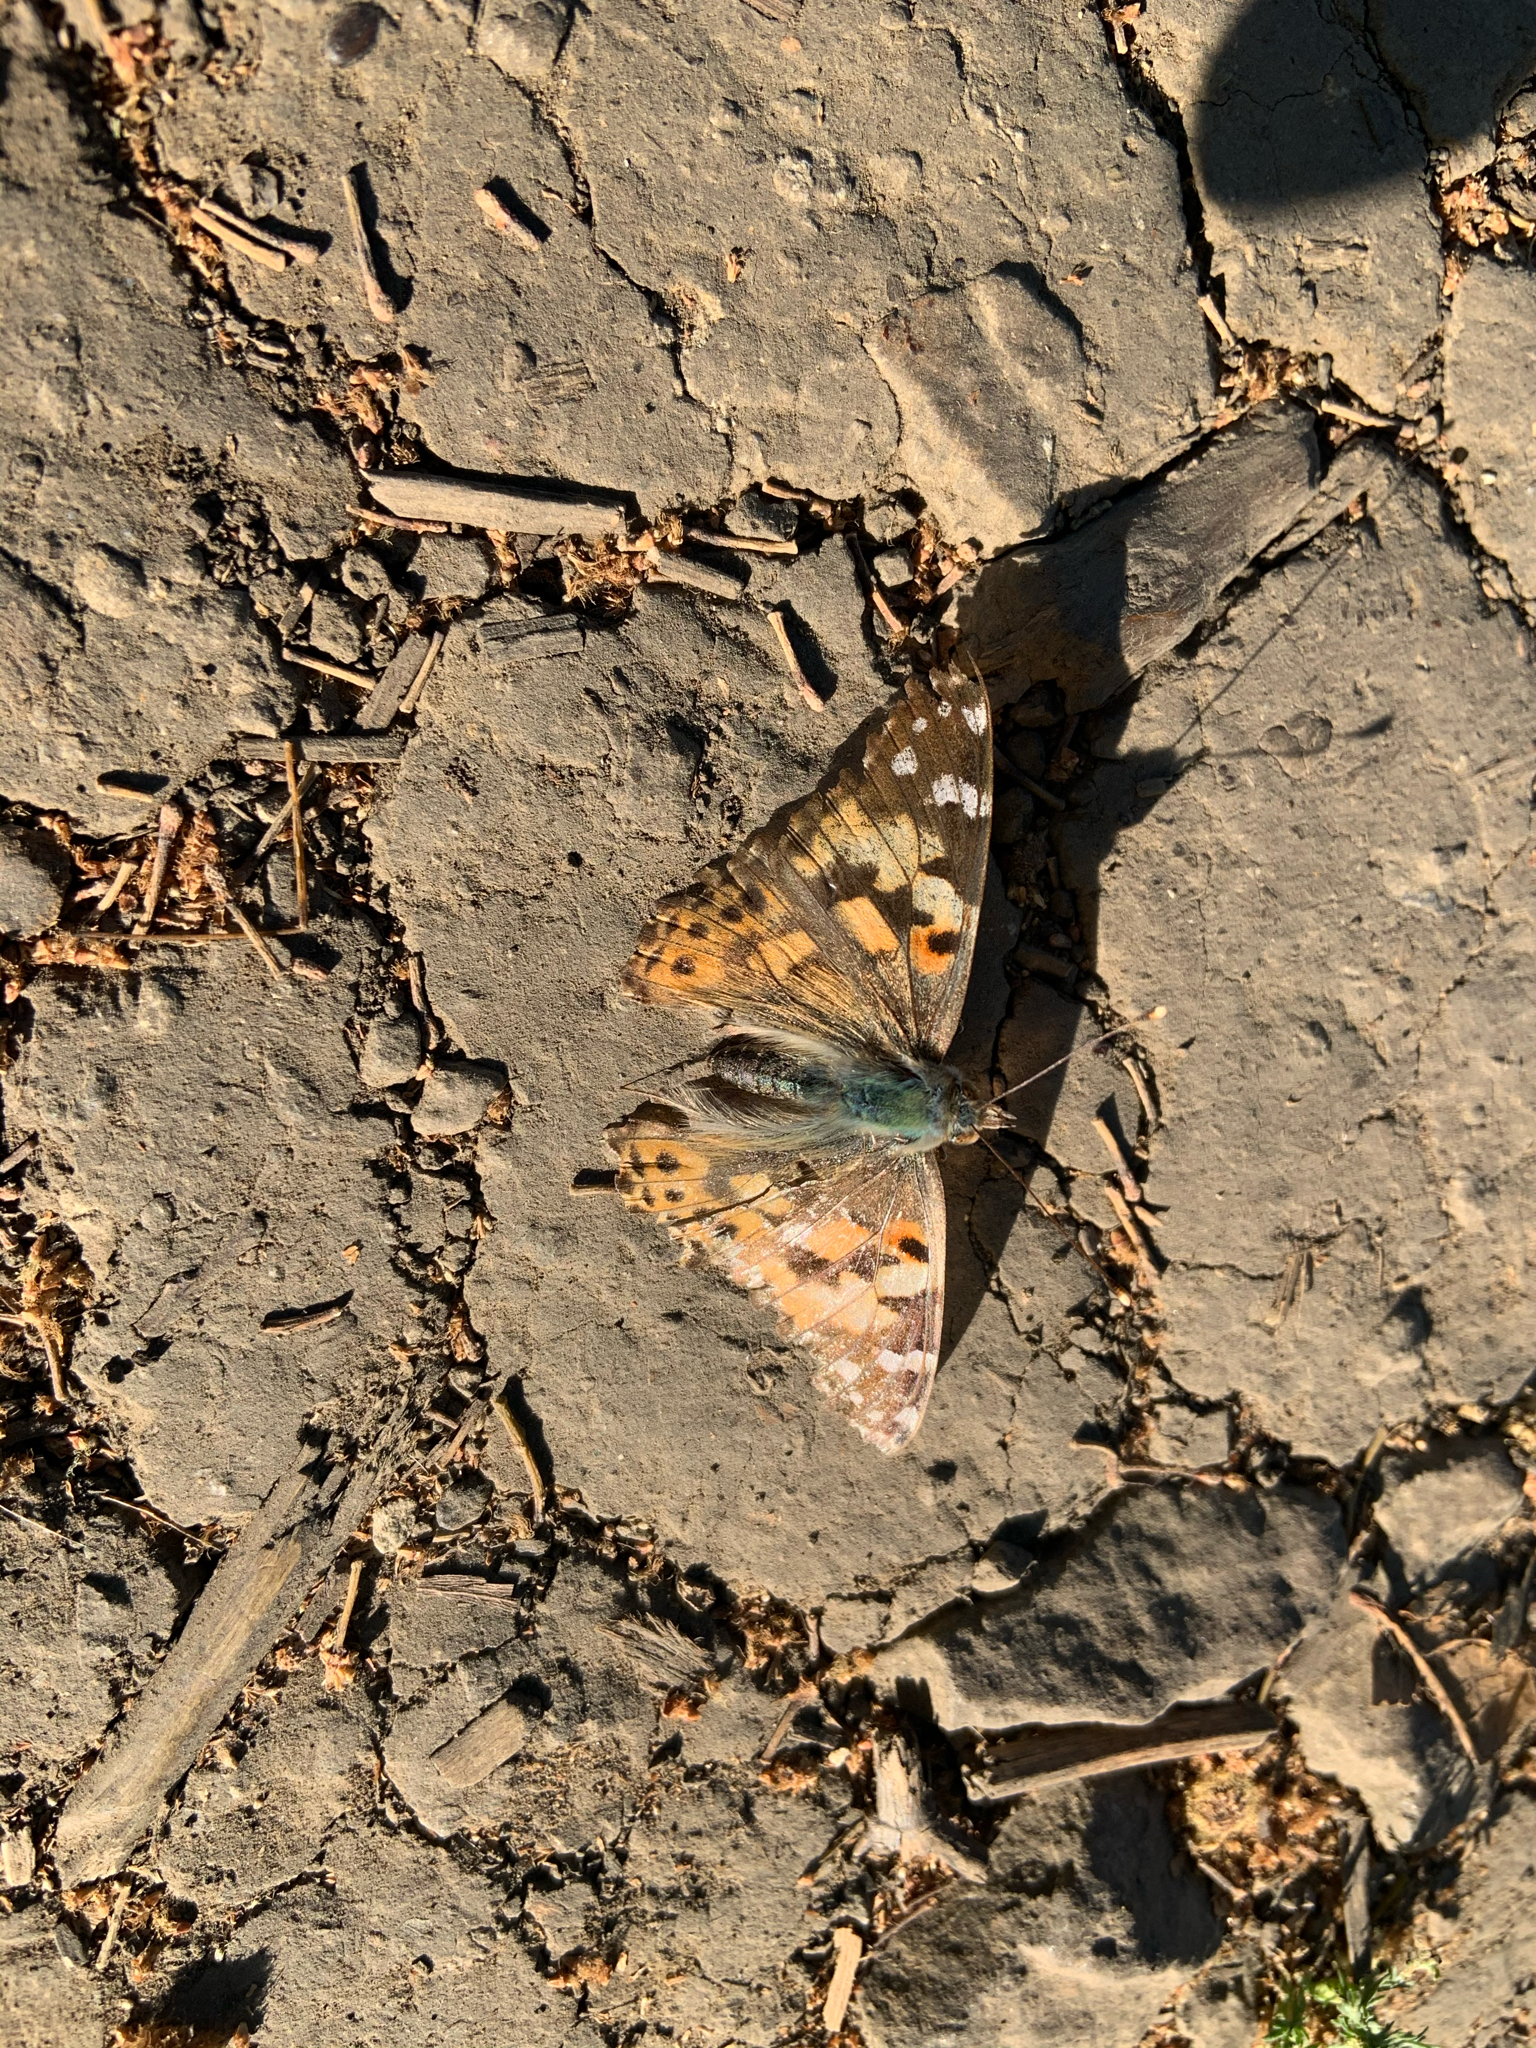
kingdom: Animalia
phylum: Arthropoda
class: Insecta
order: Lepidoptera
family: Nymphalidae
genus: Vanessa
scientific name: Vanessa cardui
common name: Painted lady
